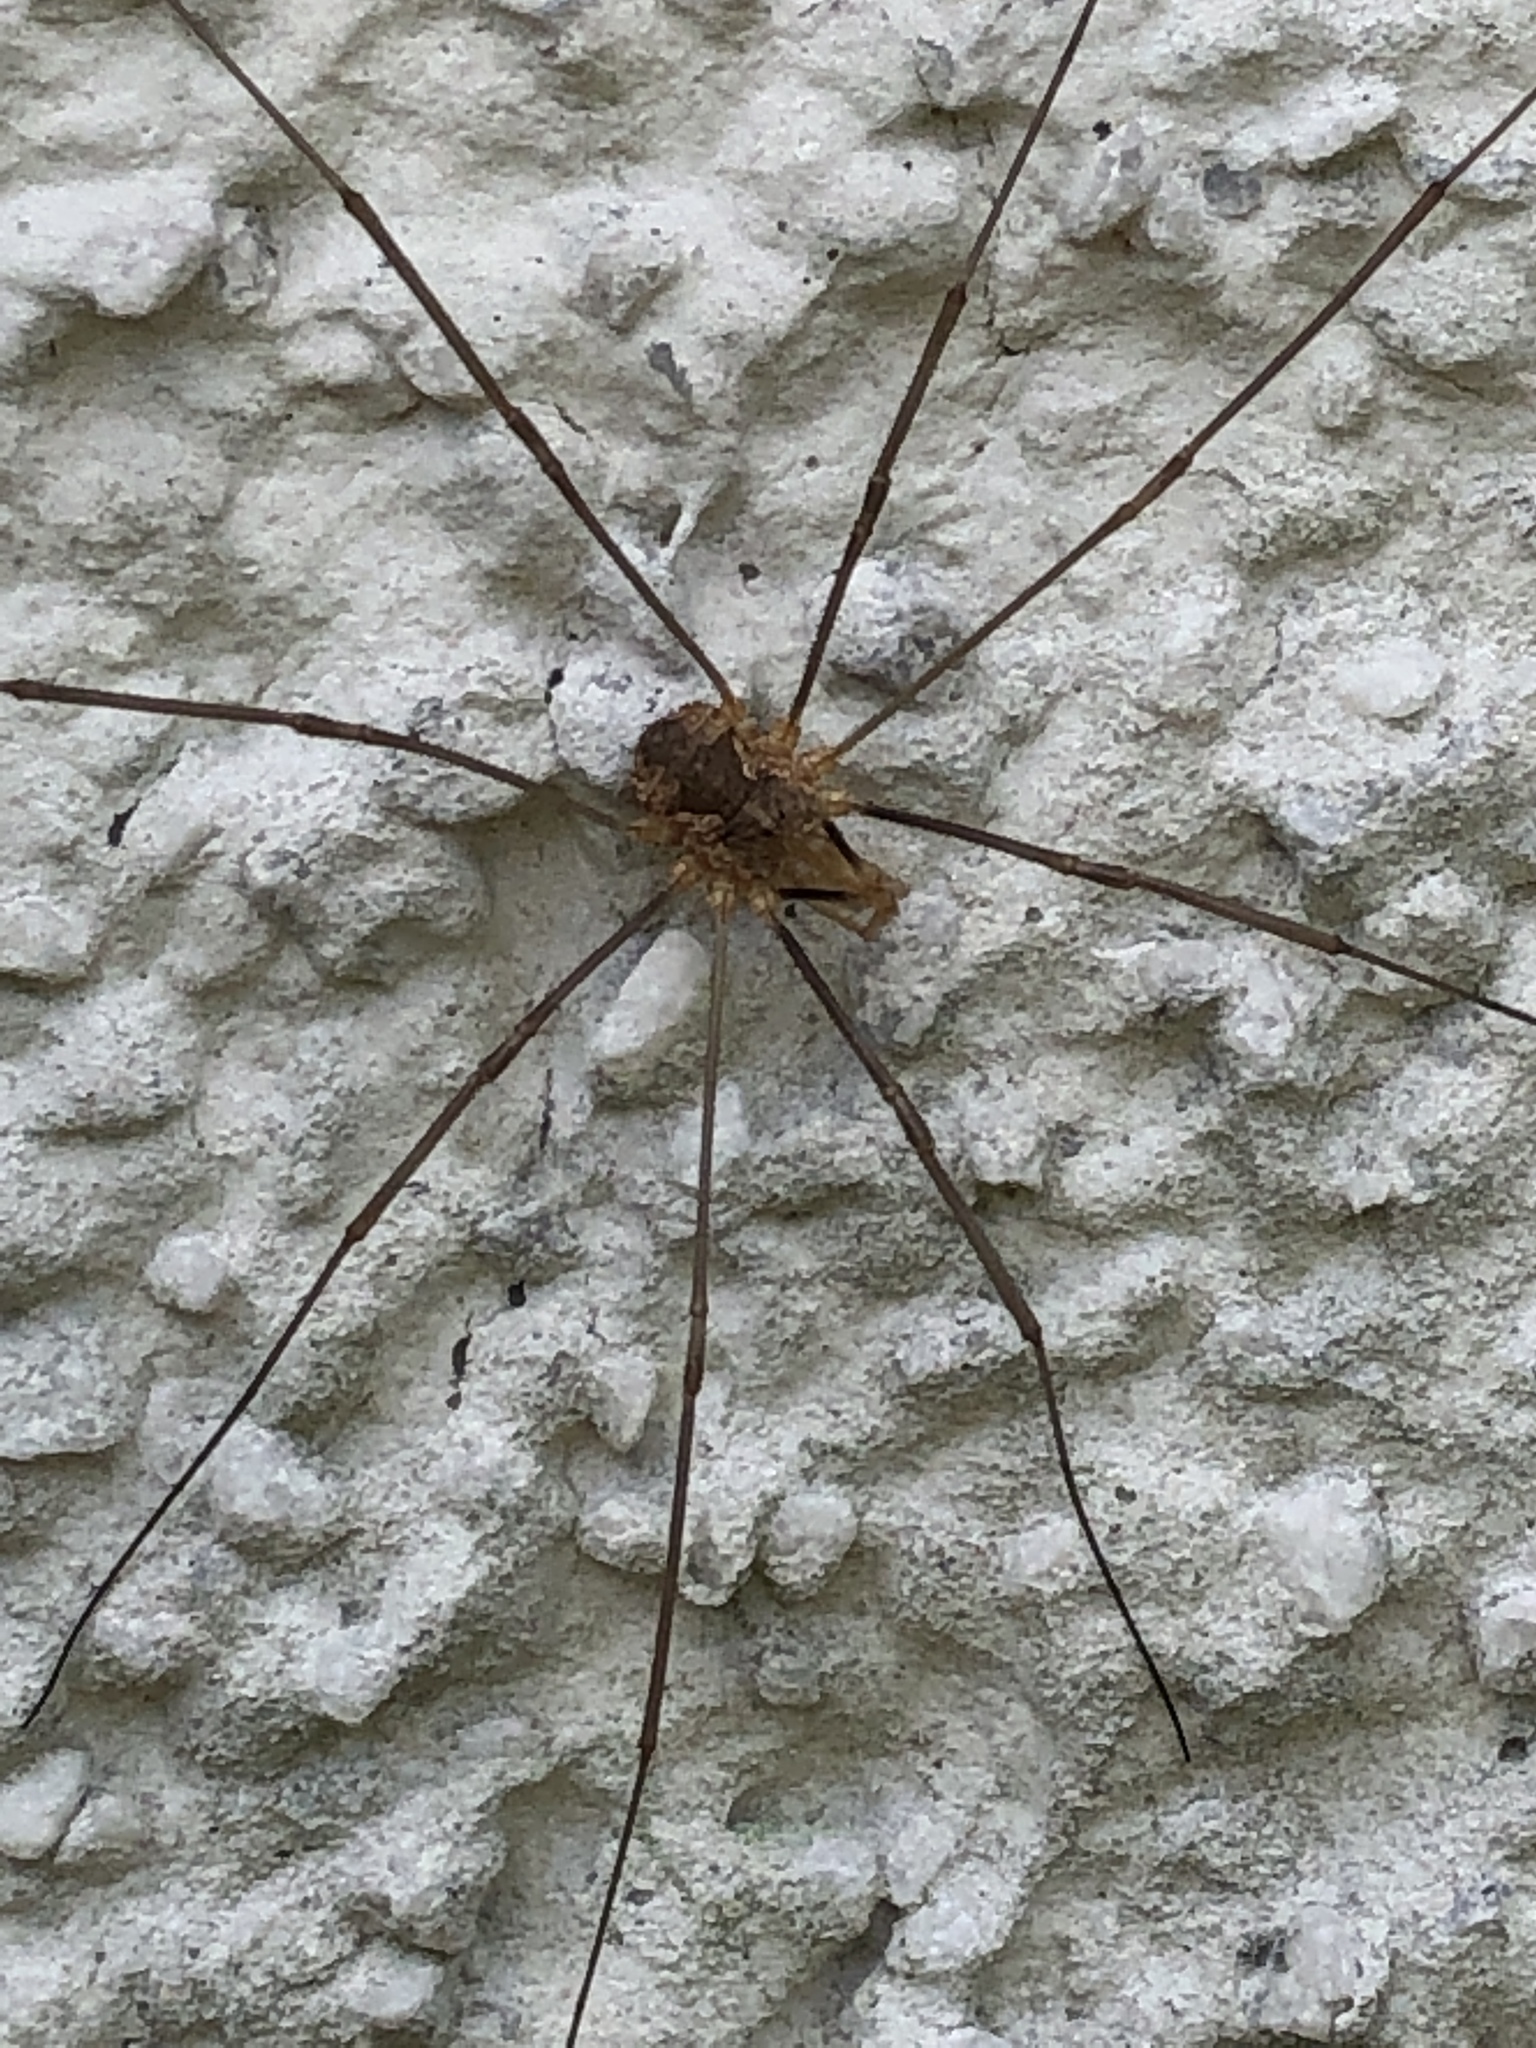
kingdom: Animalia
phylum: Arthropoda
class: Arachnida
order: Opiliones
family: Phalangiidae
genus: Phalangium
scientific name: Phalangium opilio
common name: Daddy longleg
